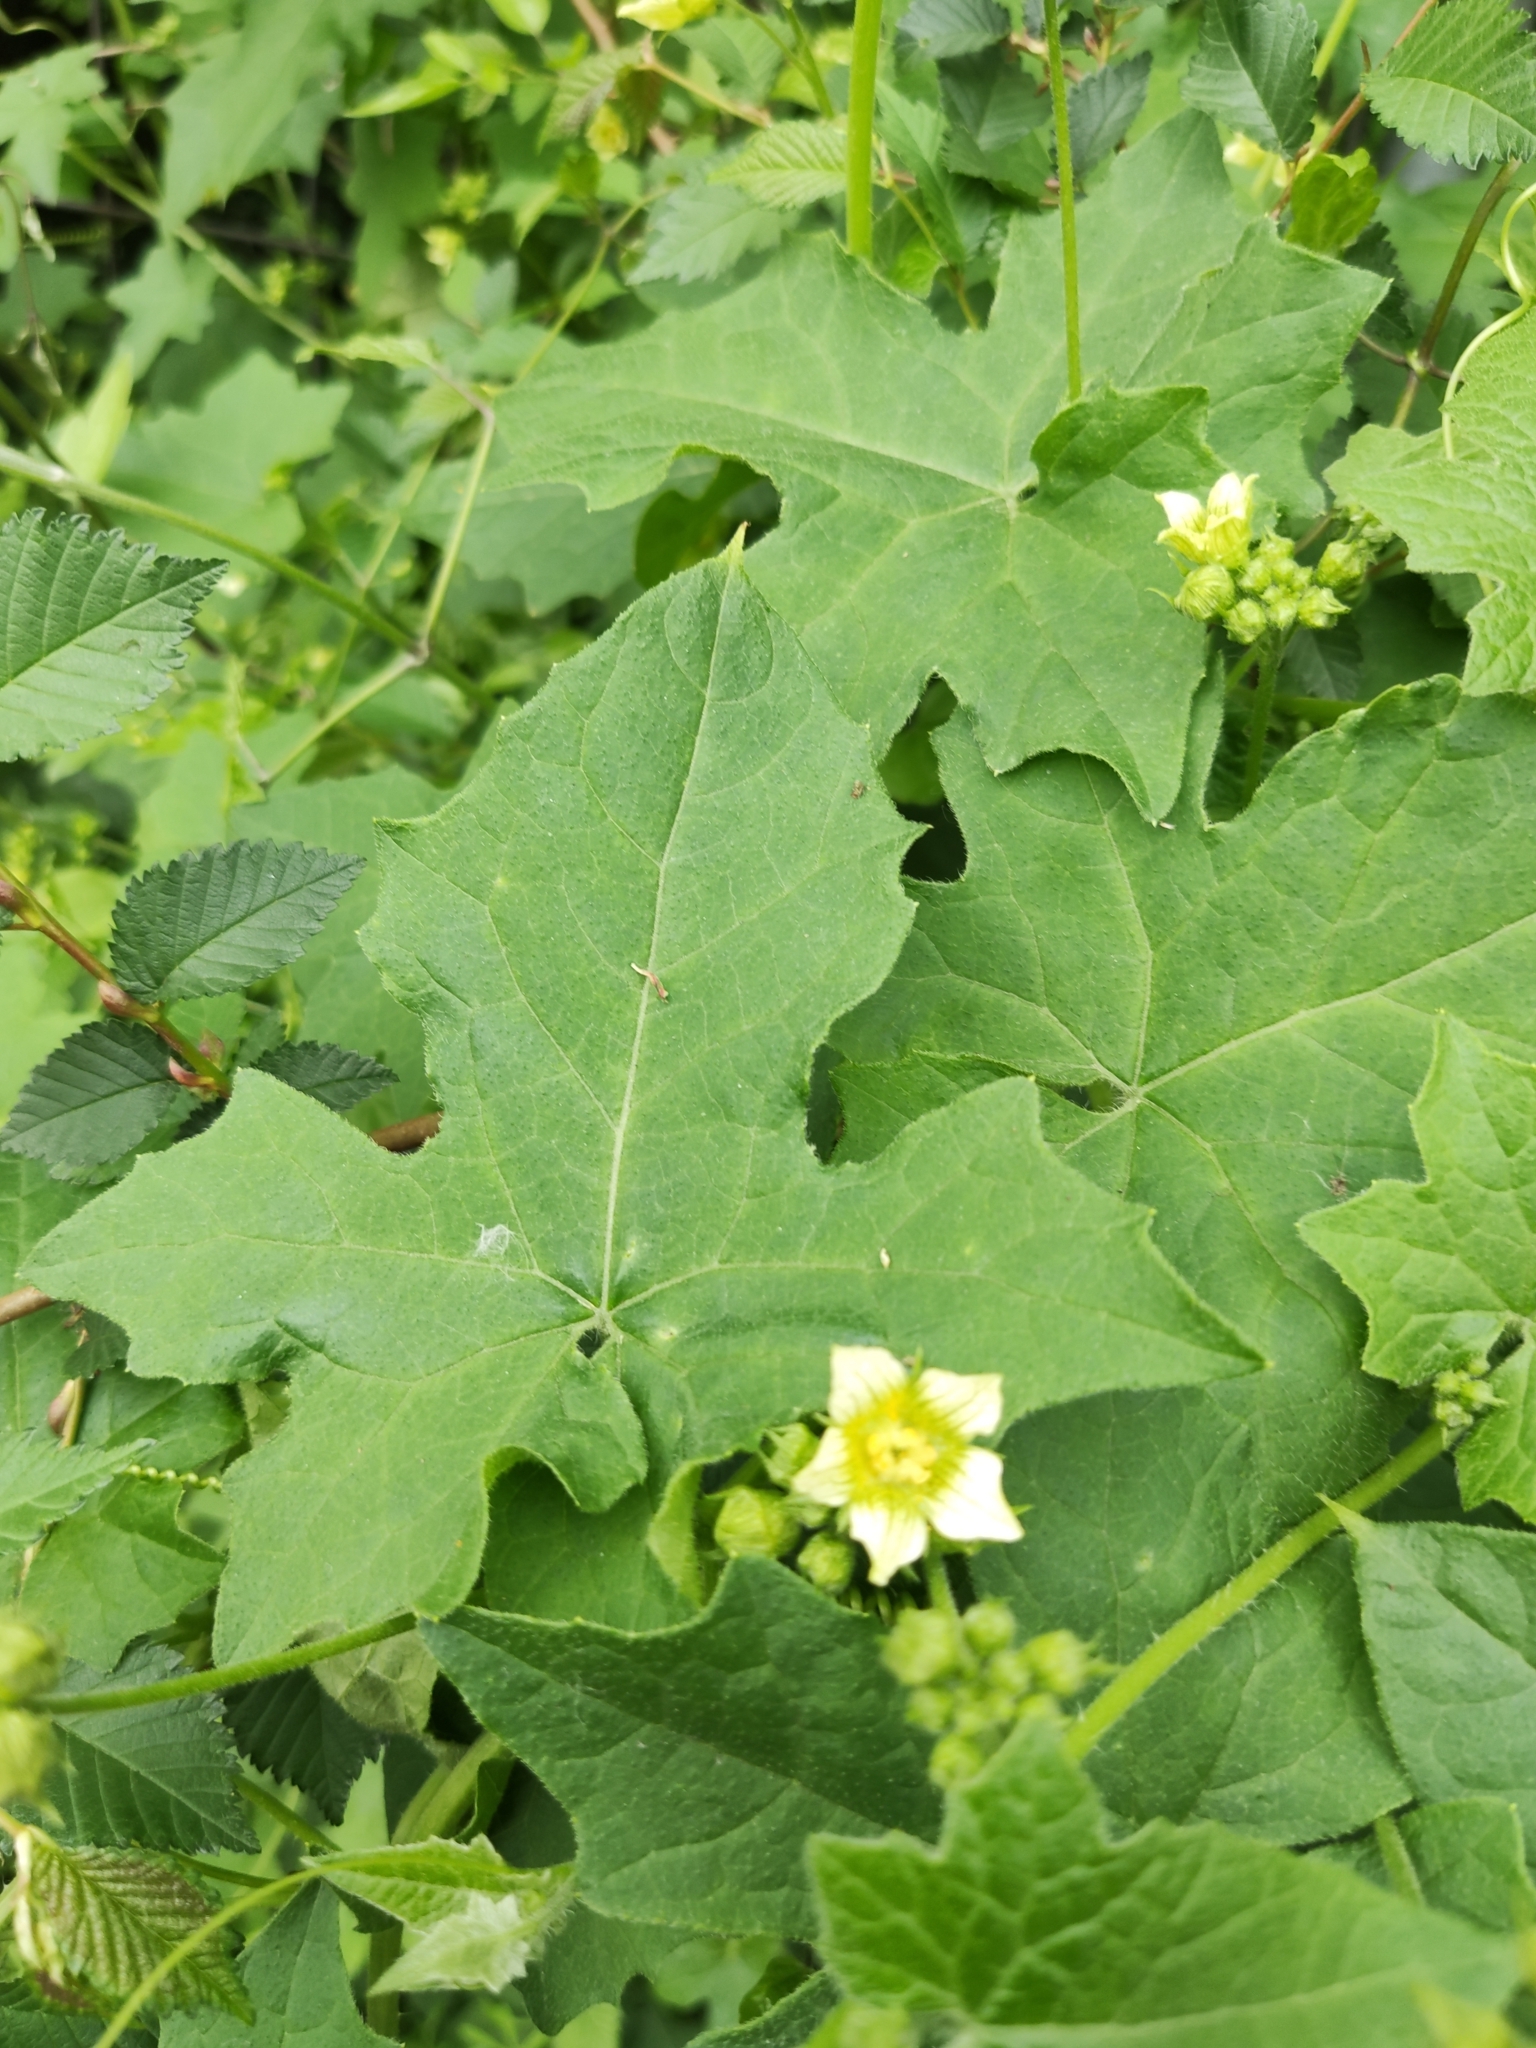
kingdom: Plantae
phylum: Tracheophyta
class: Magnoliopsida
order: Cucurbitales
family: Cucurbitaceae
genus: Bryonia
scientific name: Bryonia cretica
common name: Cretan bryony
